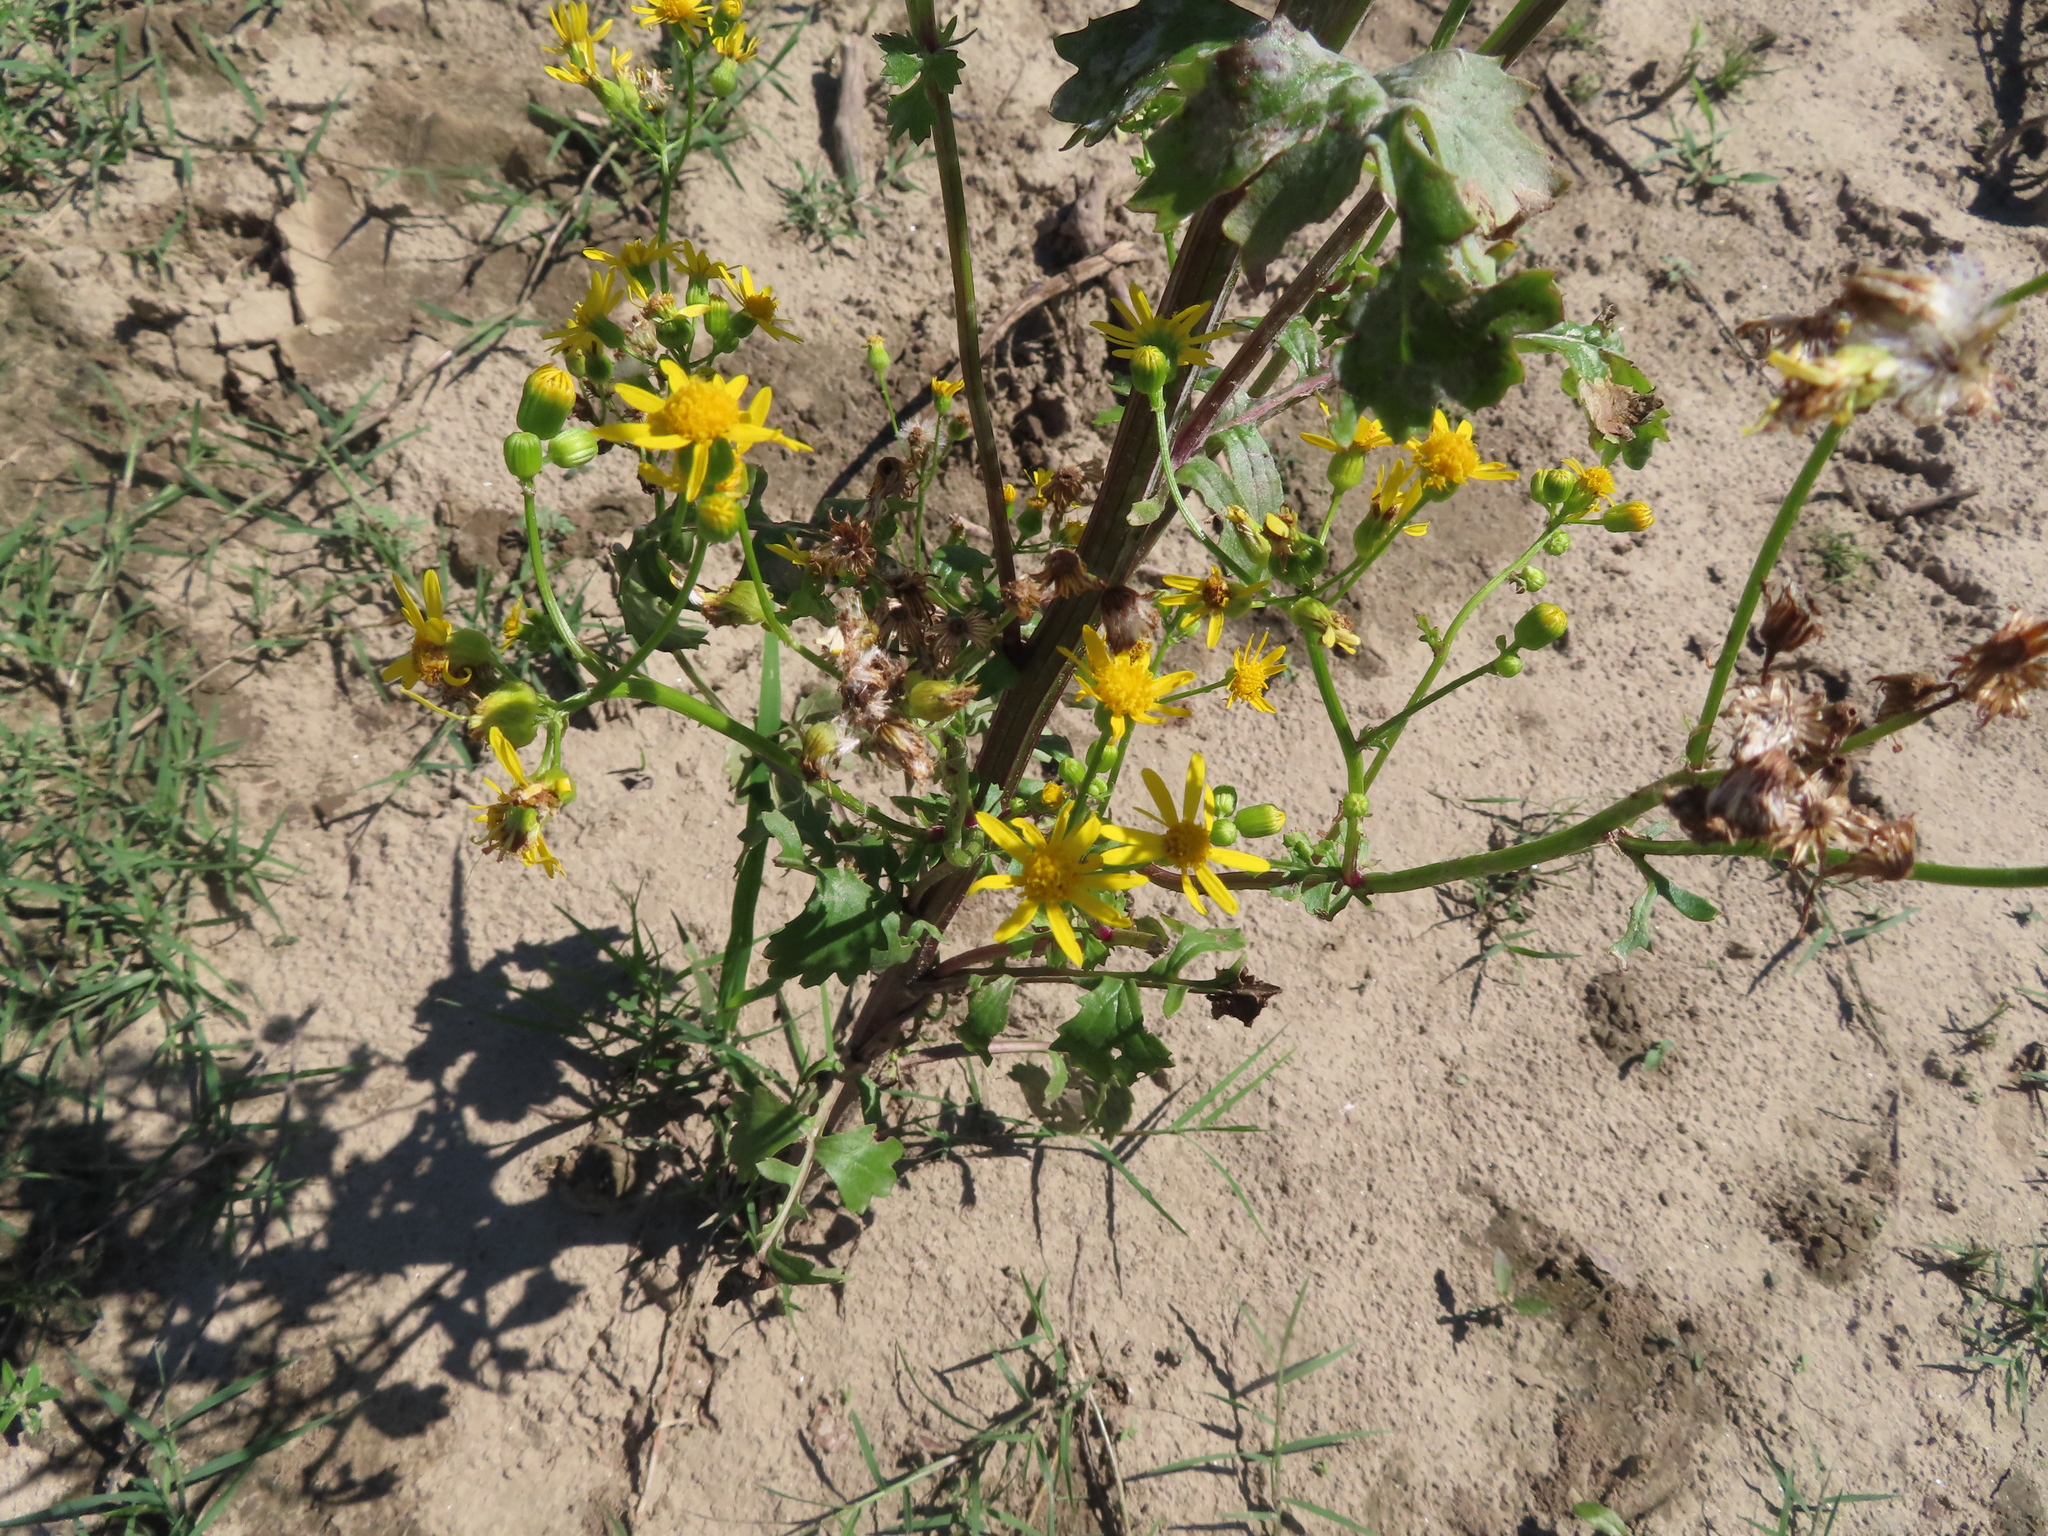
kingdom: Plantae
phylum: Tracheophyta
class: Magnoliopsida
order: Asterales
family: Asteraceae
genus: Packera
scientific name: Packera glabella
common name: Butterweed
